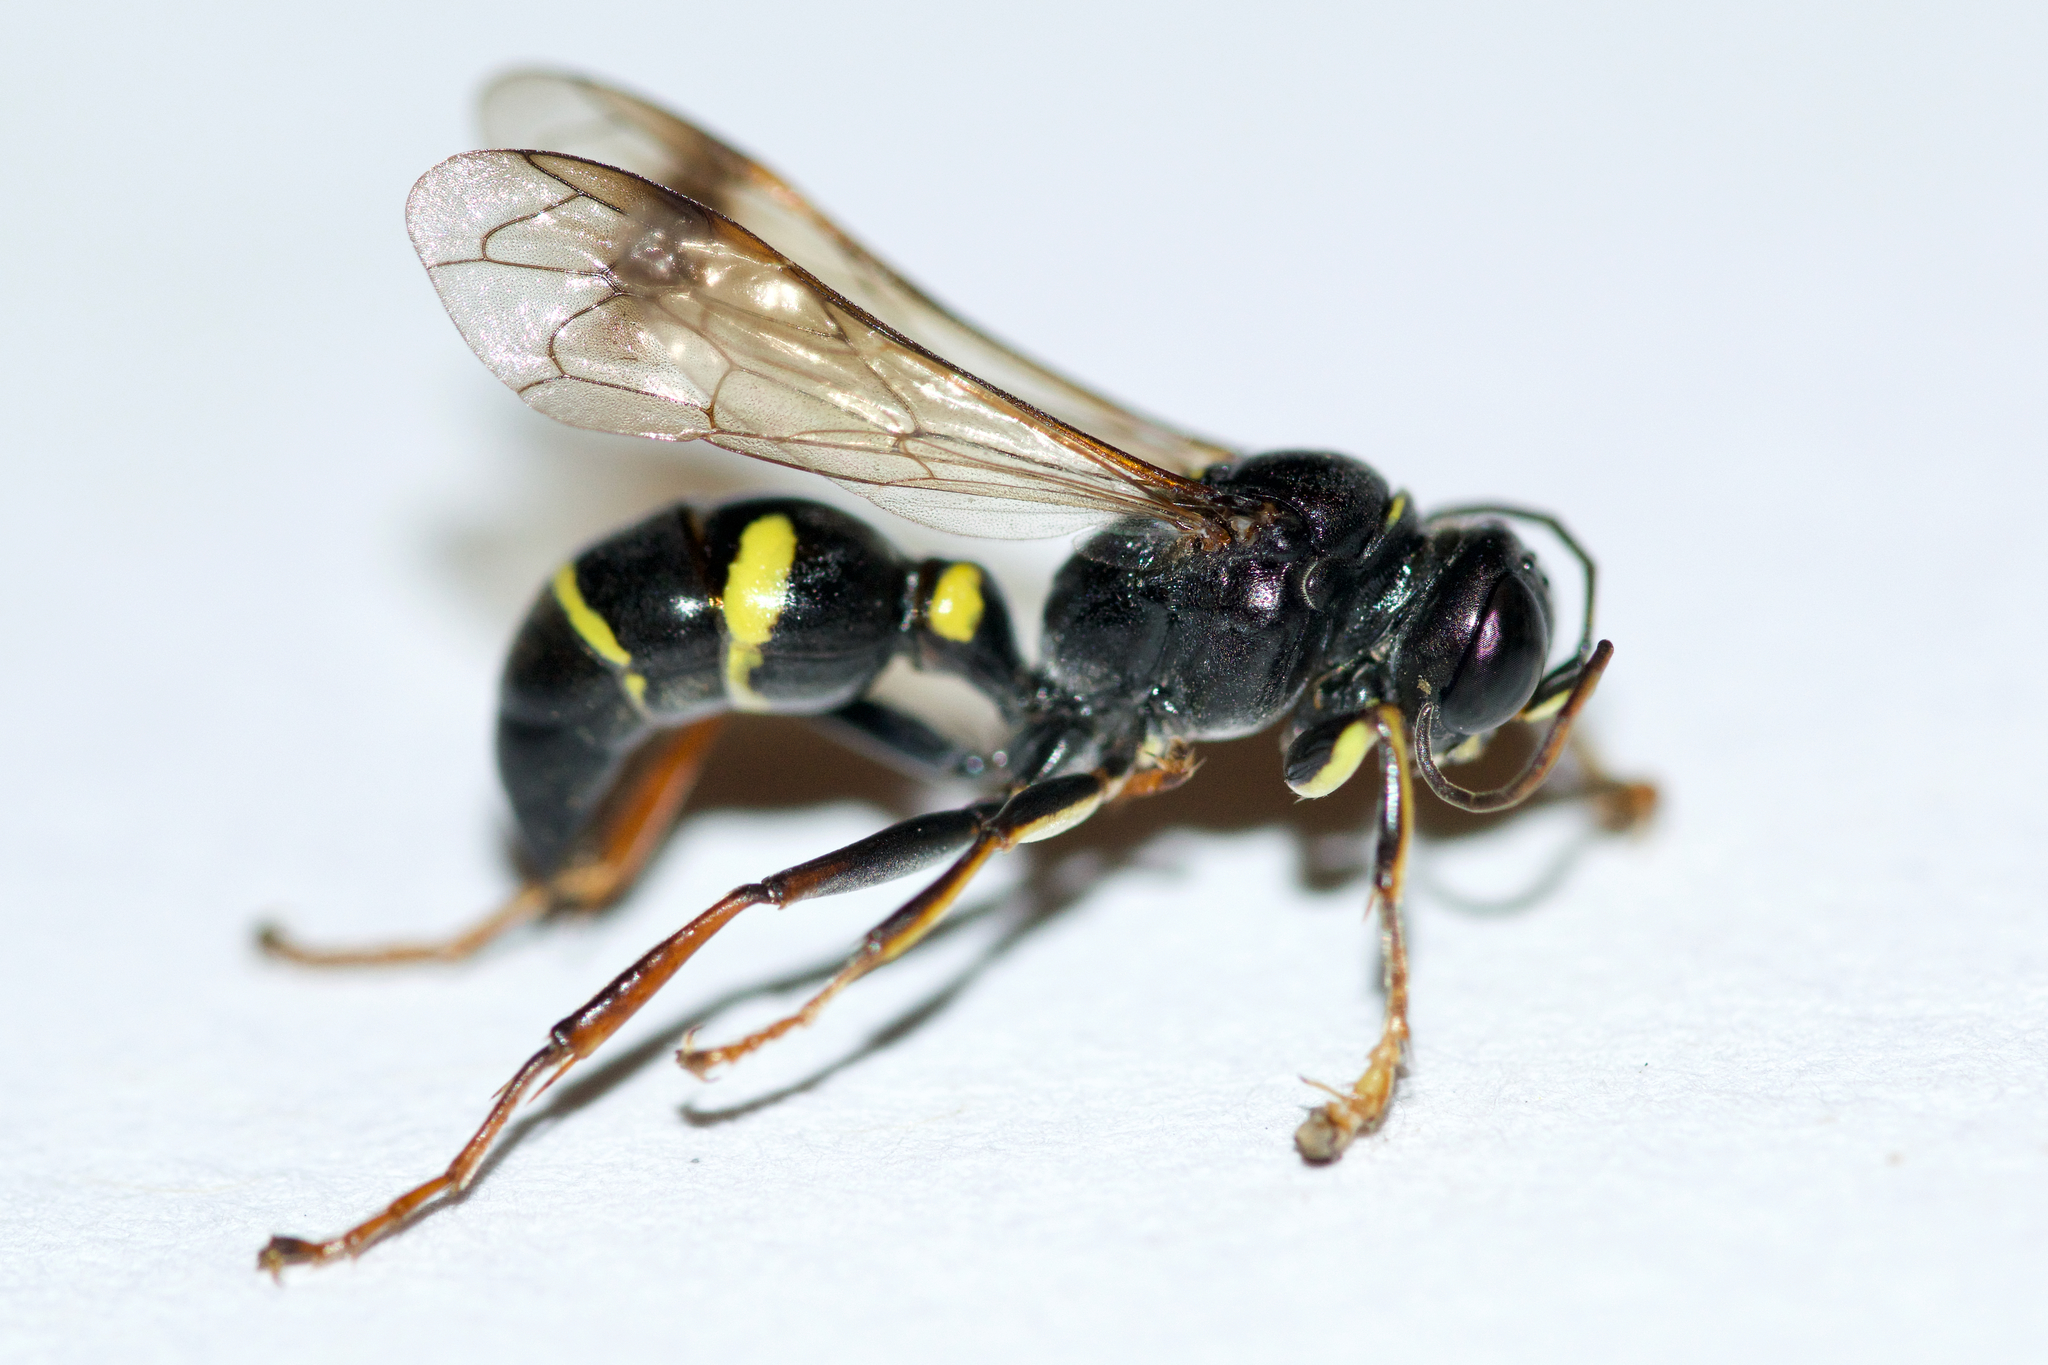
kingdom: Animalia
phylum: Arthropoda
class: Insecta
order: Hymenoptera
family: Crabronidae
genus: Lestiphorus
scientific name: Lestiphorus cockerelli
